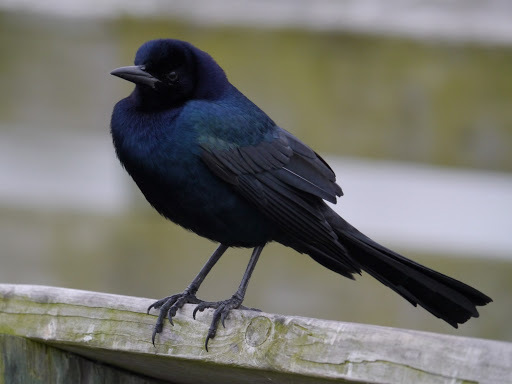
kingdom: Animalia
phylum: Chordata
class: Aves
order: Passeriformes
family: Icteridae
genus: Quiscalus
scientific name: Quiscalus quiscula
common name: Common grackle
